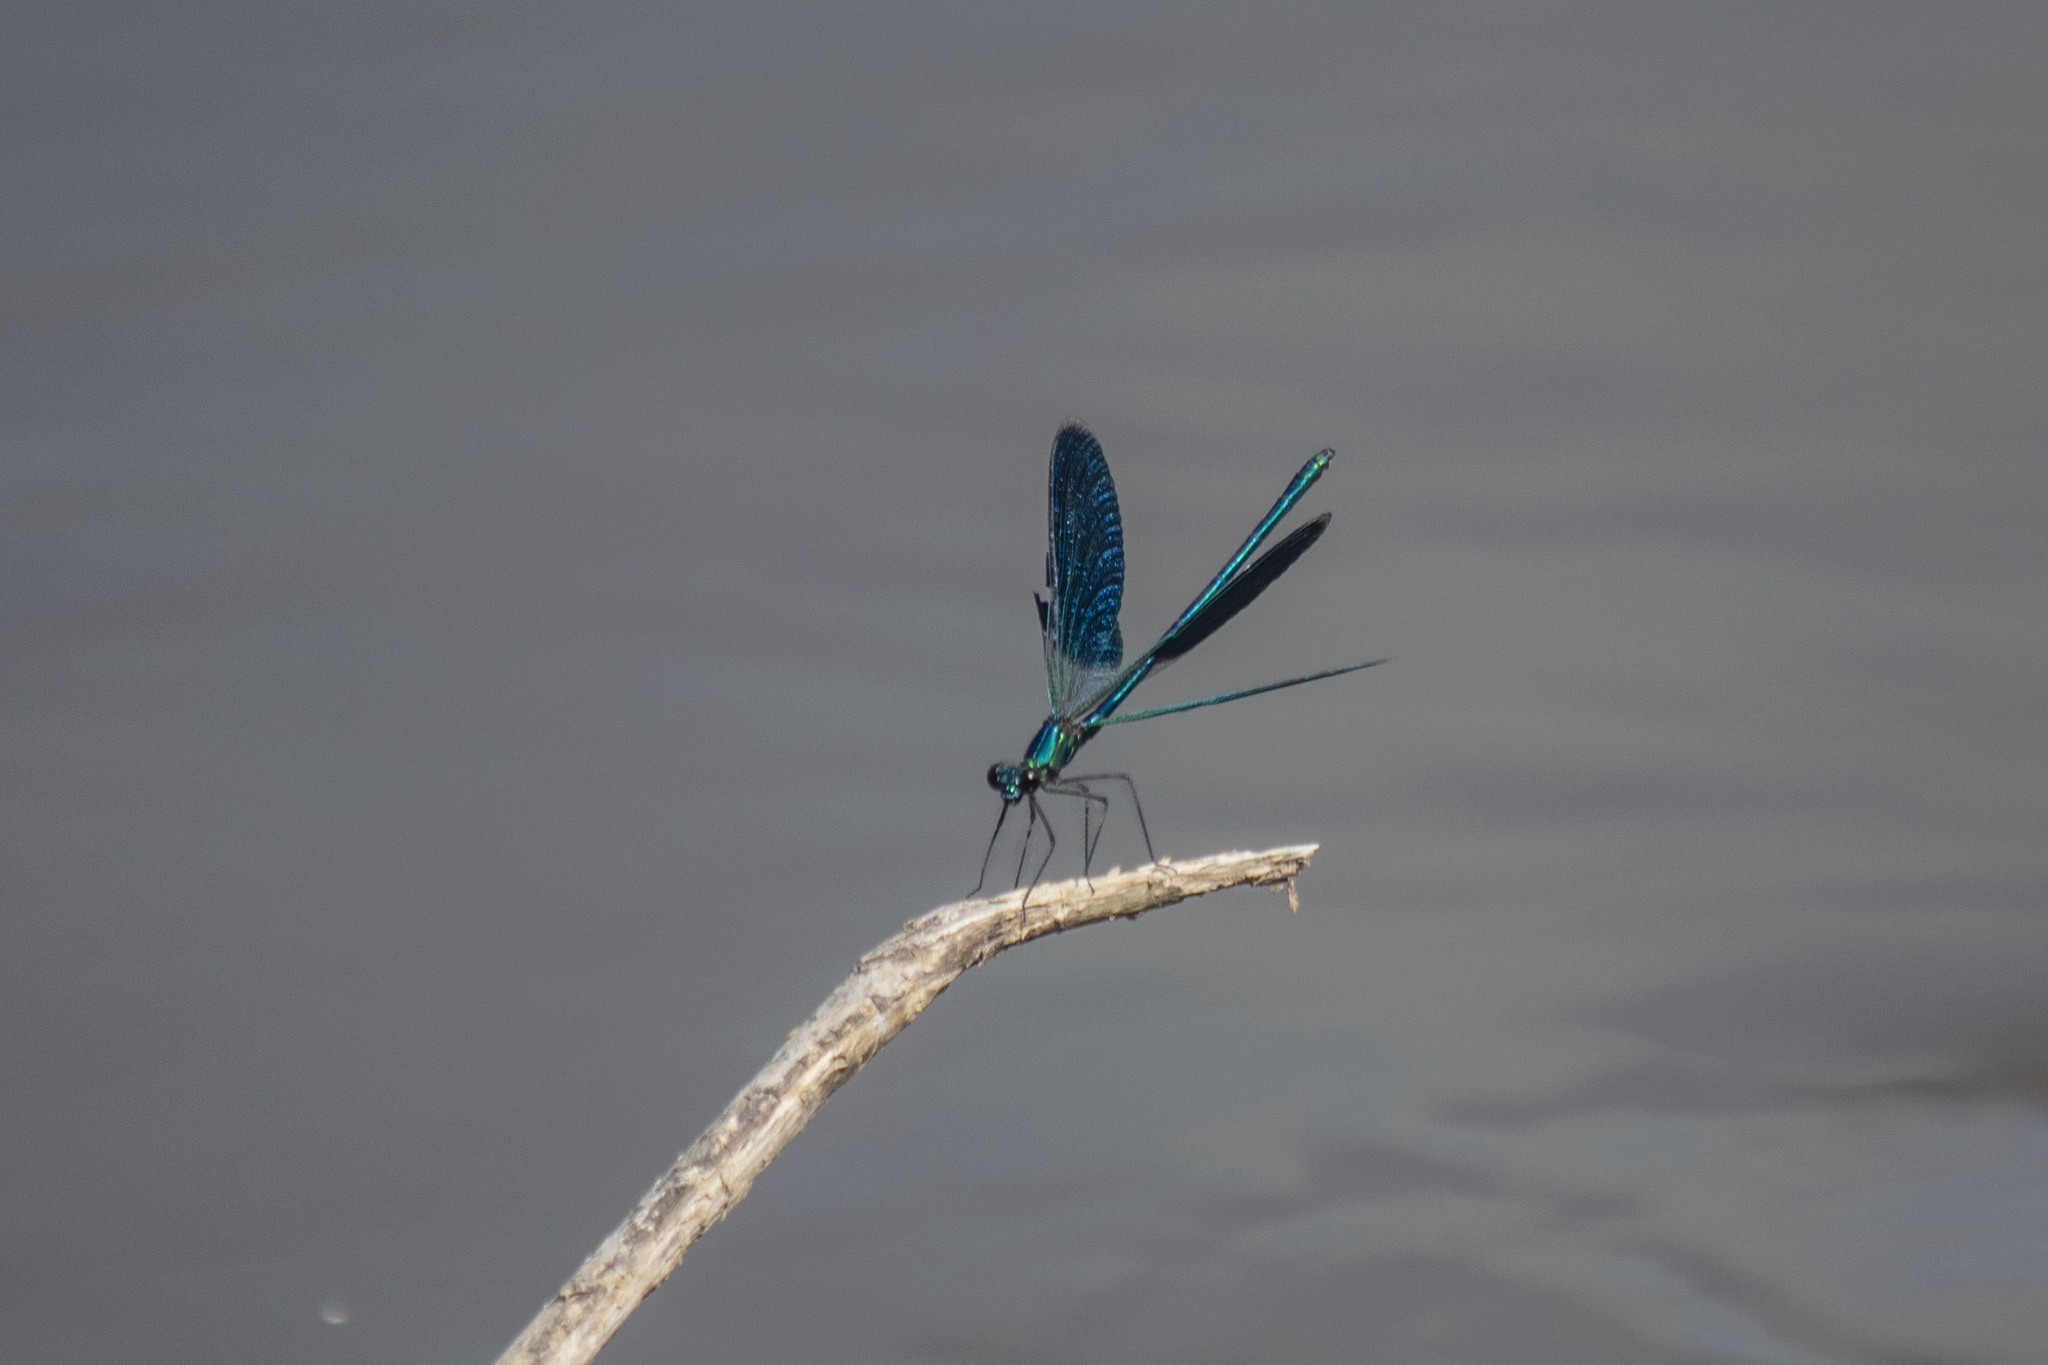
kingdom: Animalia
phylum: Arthropoda
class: Insecta
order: Odonata
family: Calopterygidae
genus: Calopteryx
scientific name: Calopteryx splendens
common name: Banded demoiselle
